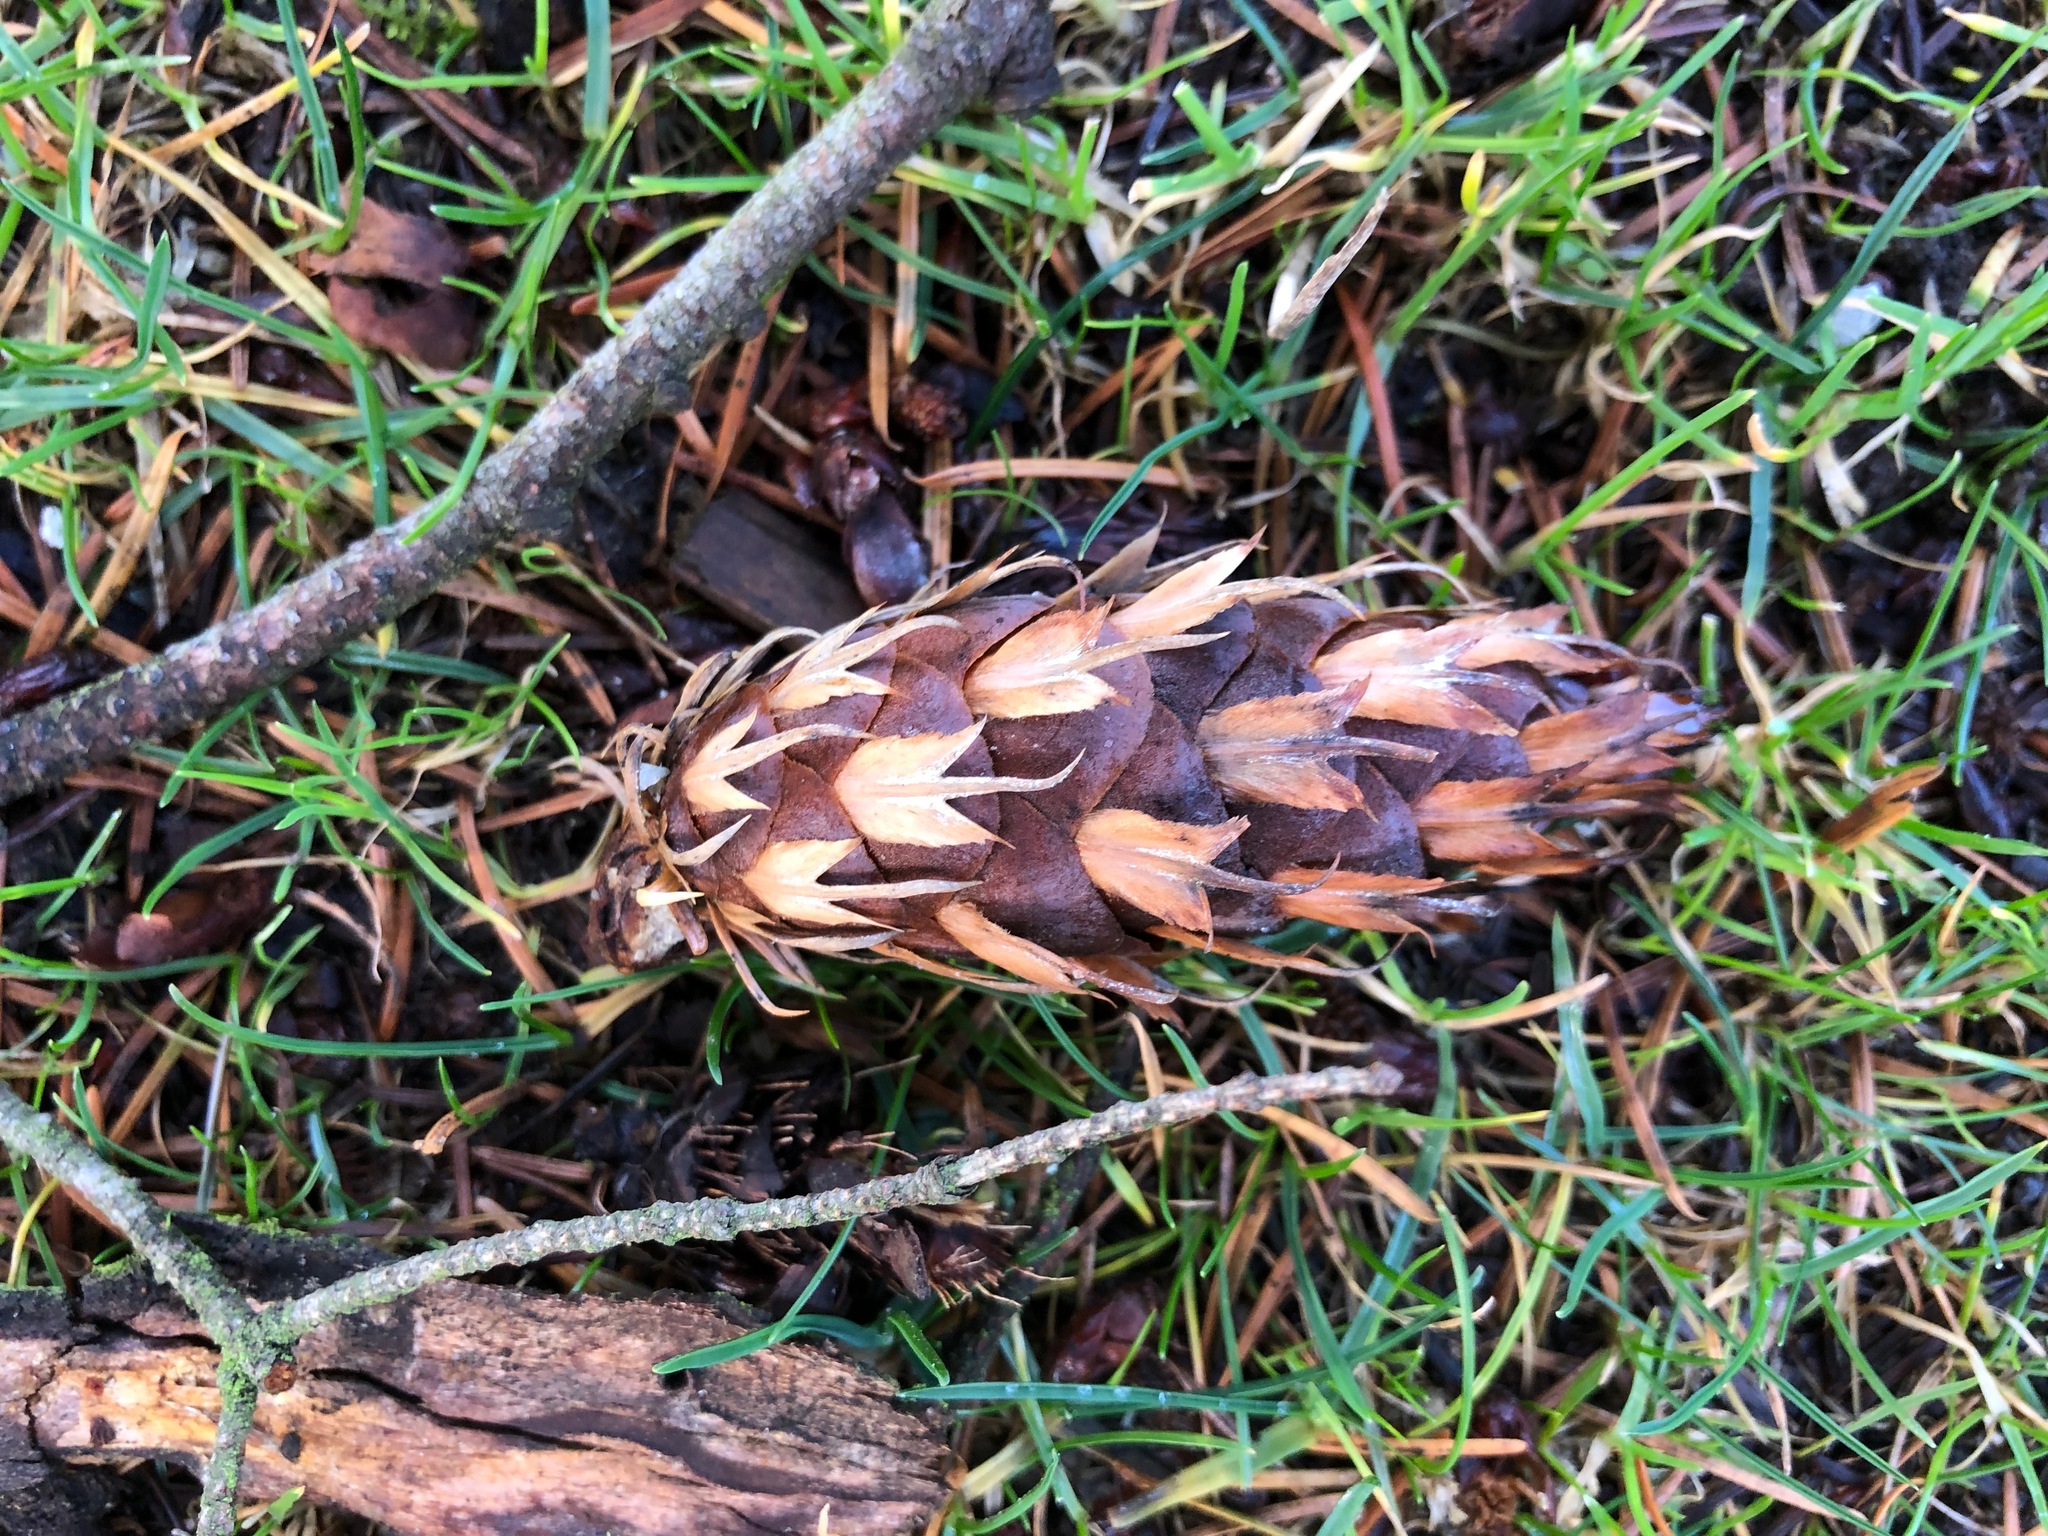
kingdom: Plantae
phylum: Tracheophyta
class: Pinopsida
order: Pinales
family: Pinaceae
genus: Pseudotsuga
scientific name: Pseudotsuga menziesii
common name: Douglas fir
